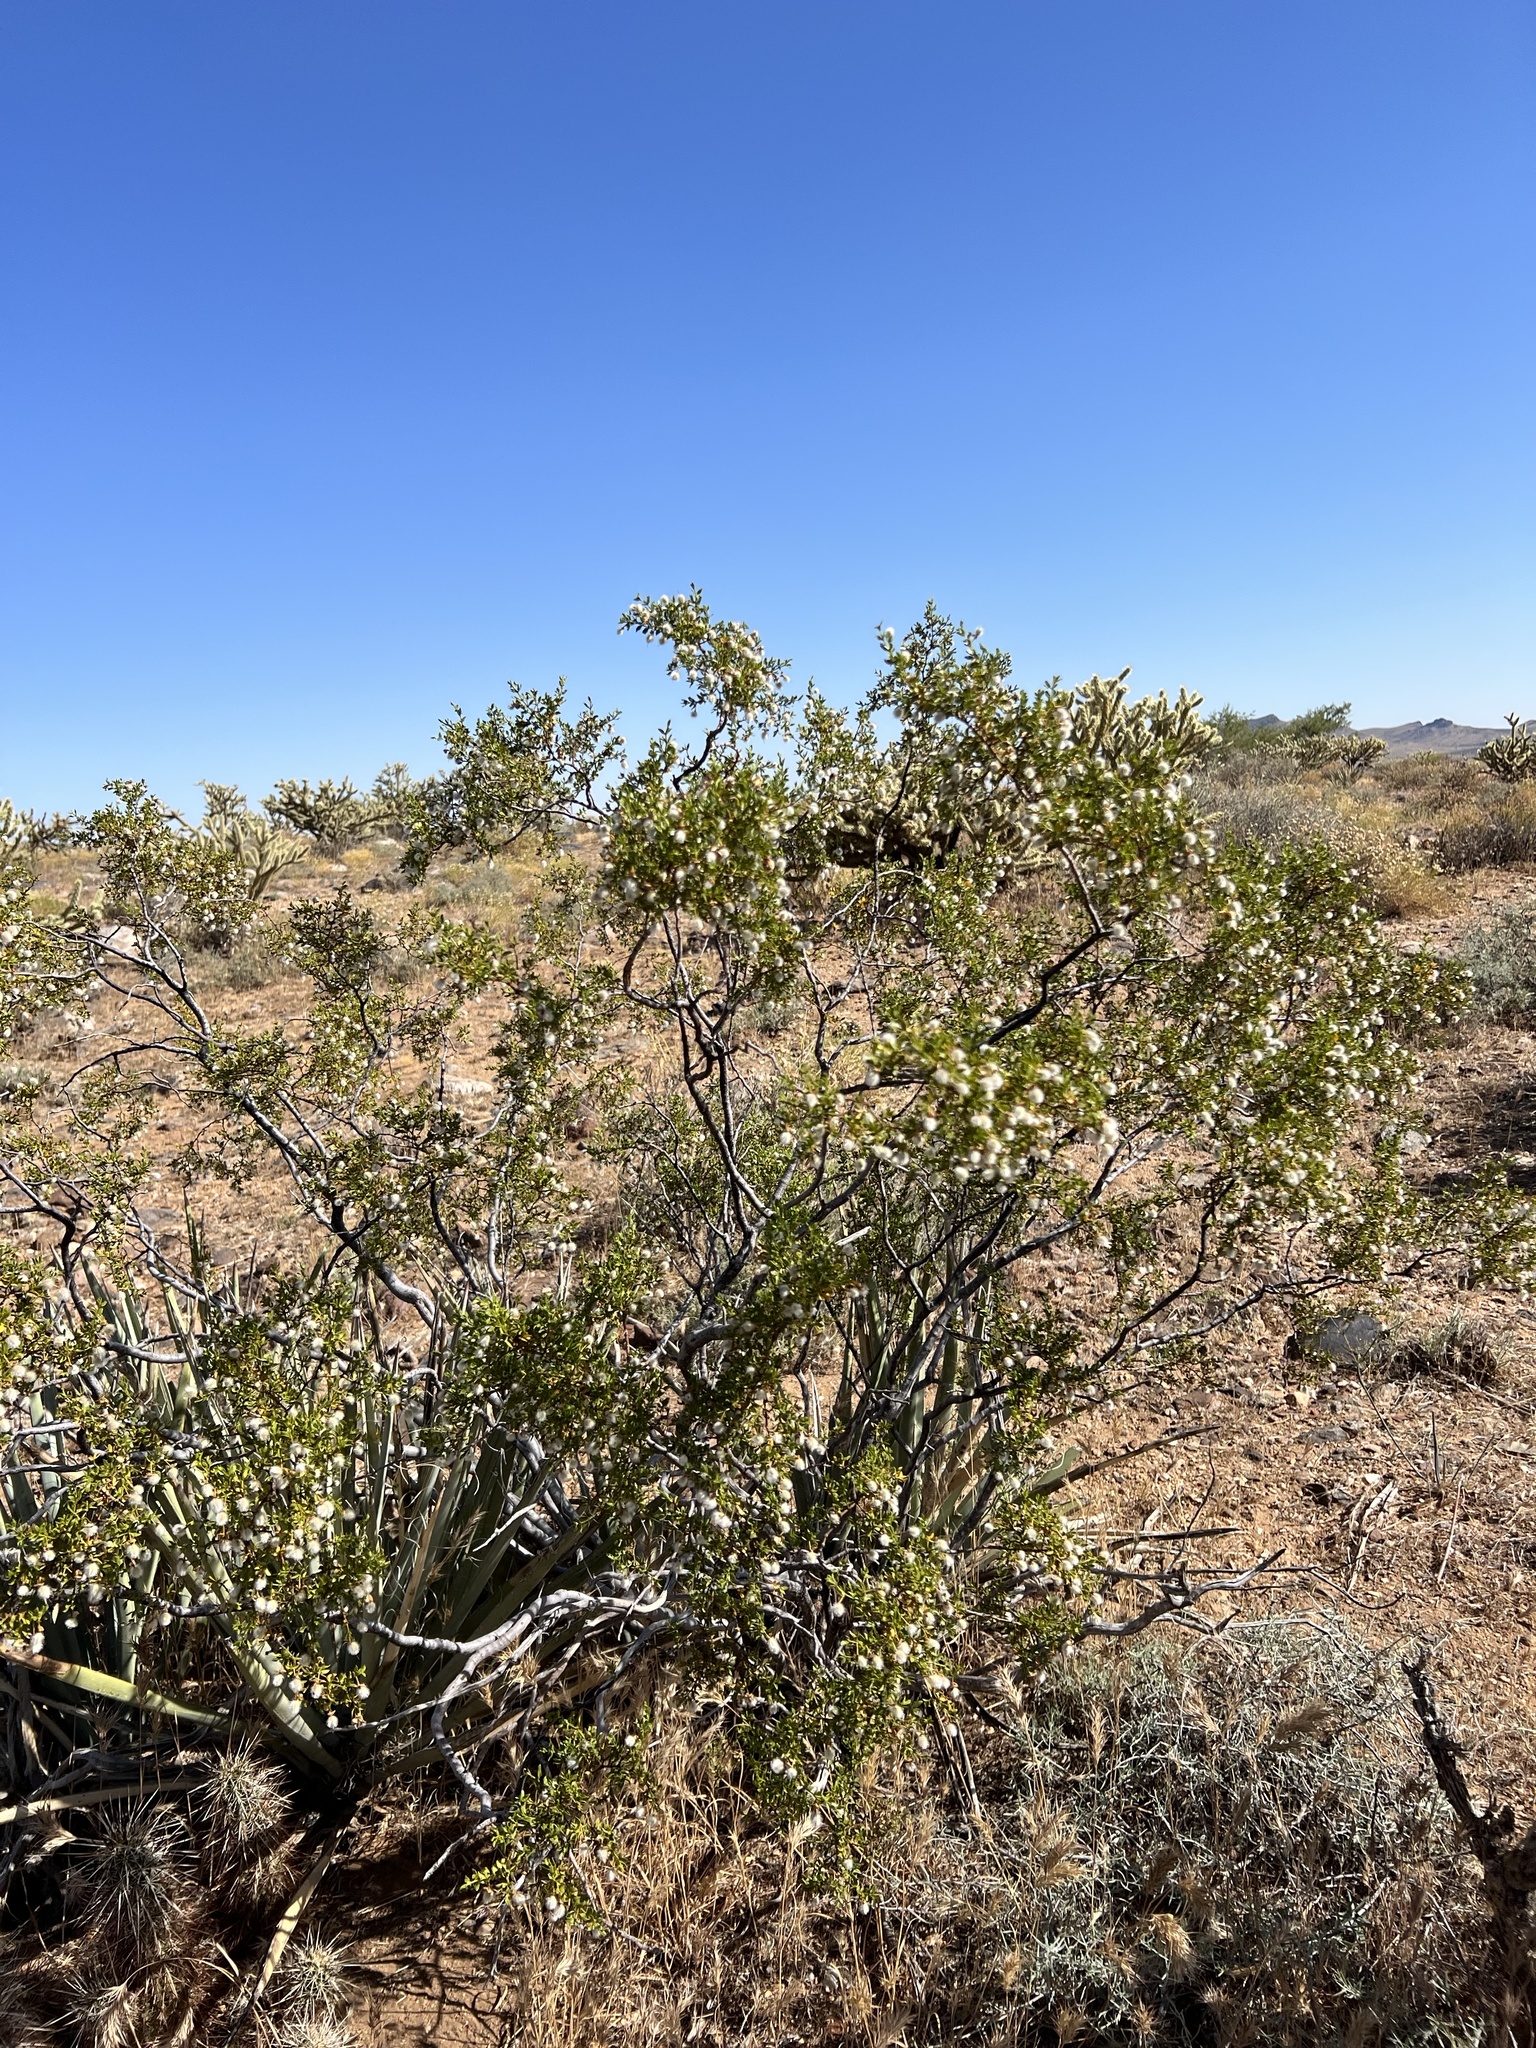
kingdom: Plantae
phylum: Tracheophyta
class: Magnoliopsida
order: Zygophyllales
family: Zygophyllaceae
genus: Larrea
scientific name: Larrea tridentata
